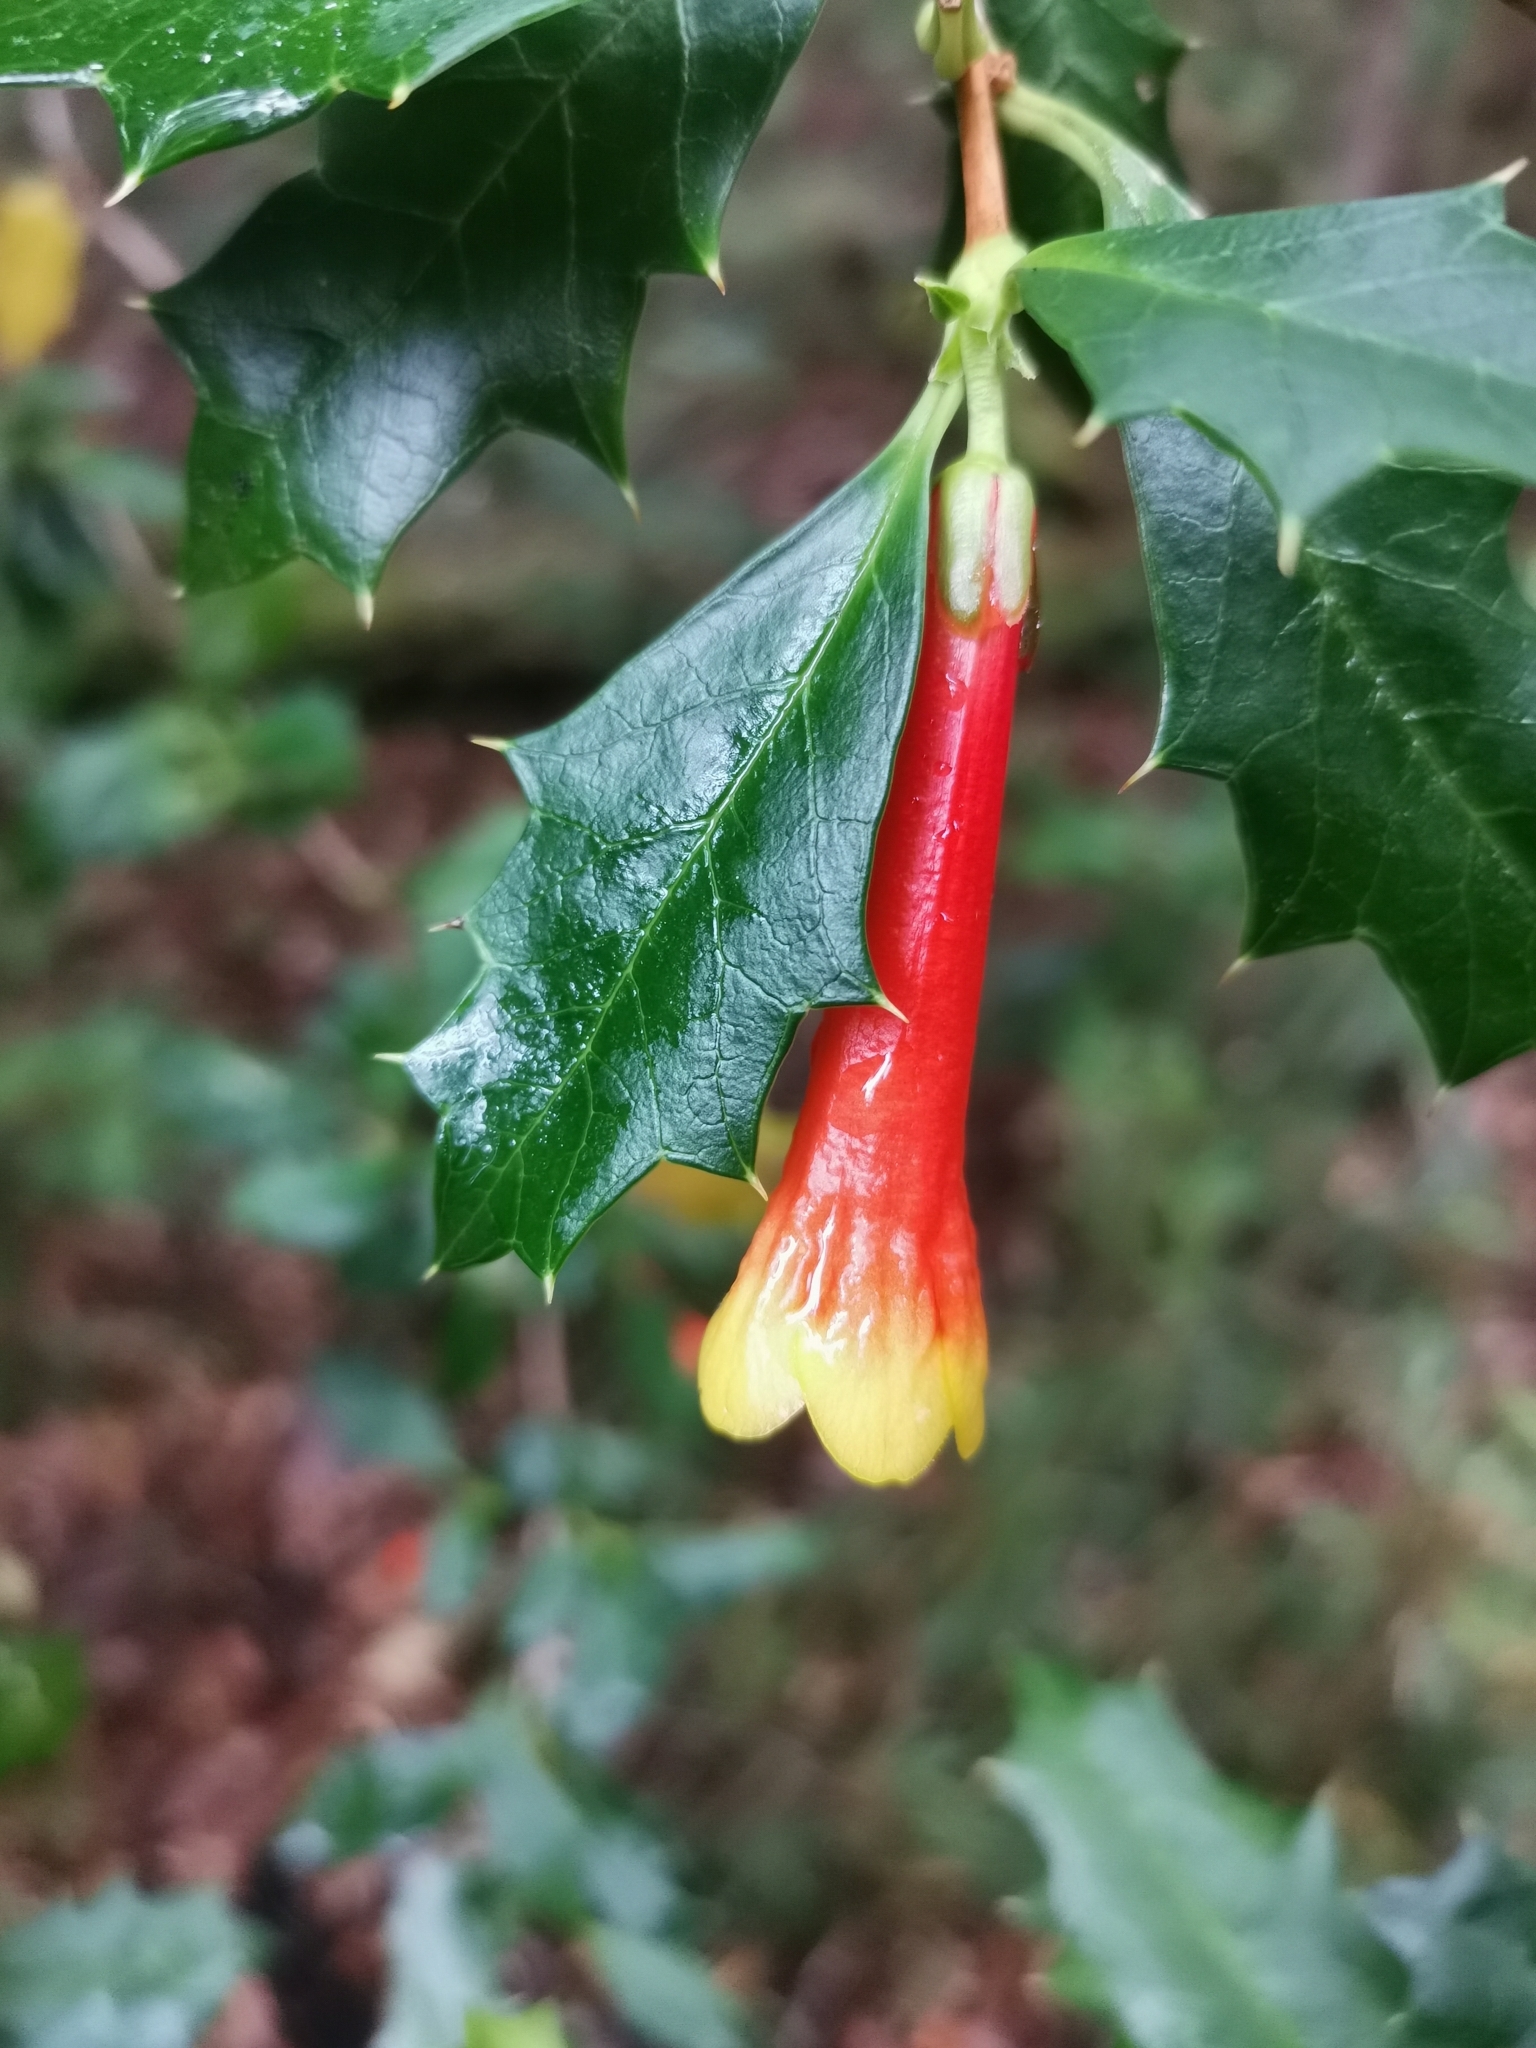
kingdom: Plantae
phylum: Tracheophyta
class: Magnoliopsida
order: Bruniales
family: Columelliaceae
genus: Desfontainia
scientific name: Desfontainia fulgens
